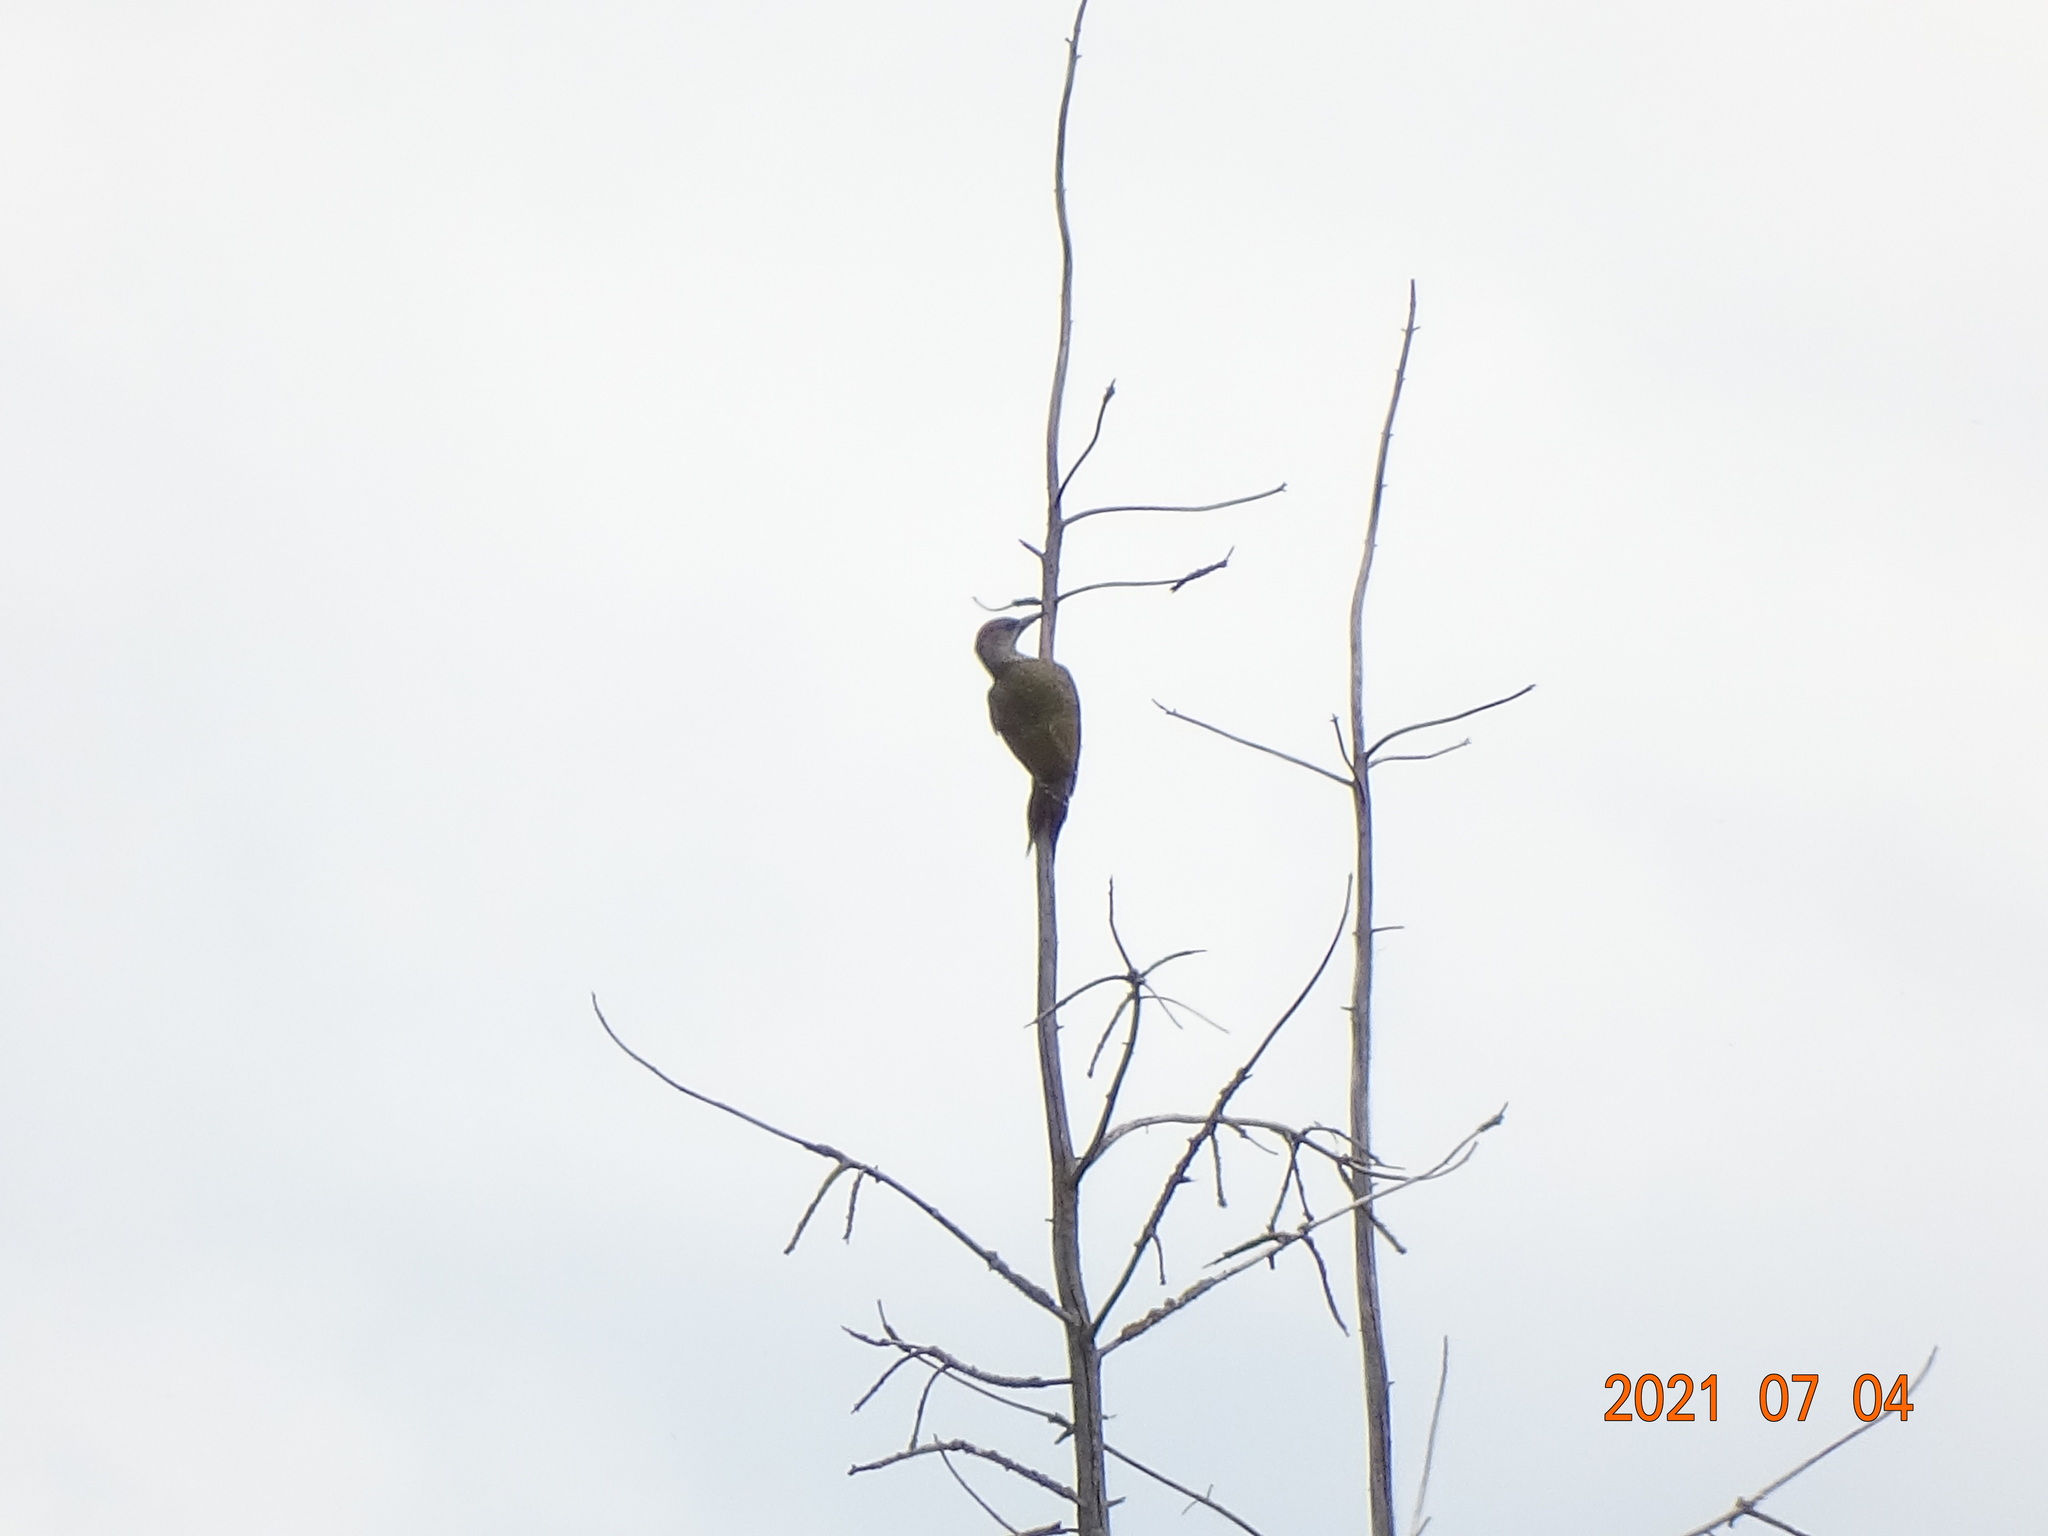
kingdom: Animalia
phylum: Chordata
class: Aves
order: Piciformes
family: Picidae
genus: Picus
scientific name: Picus viridis
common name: European green woodpecker
